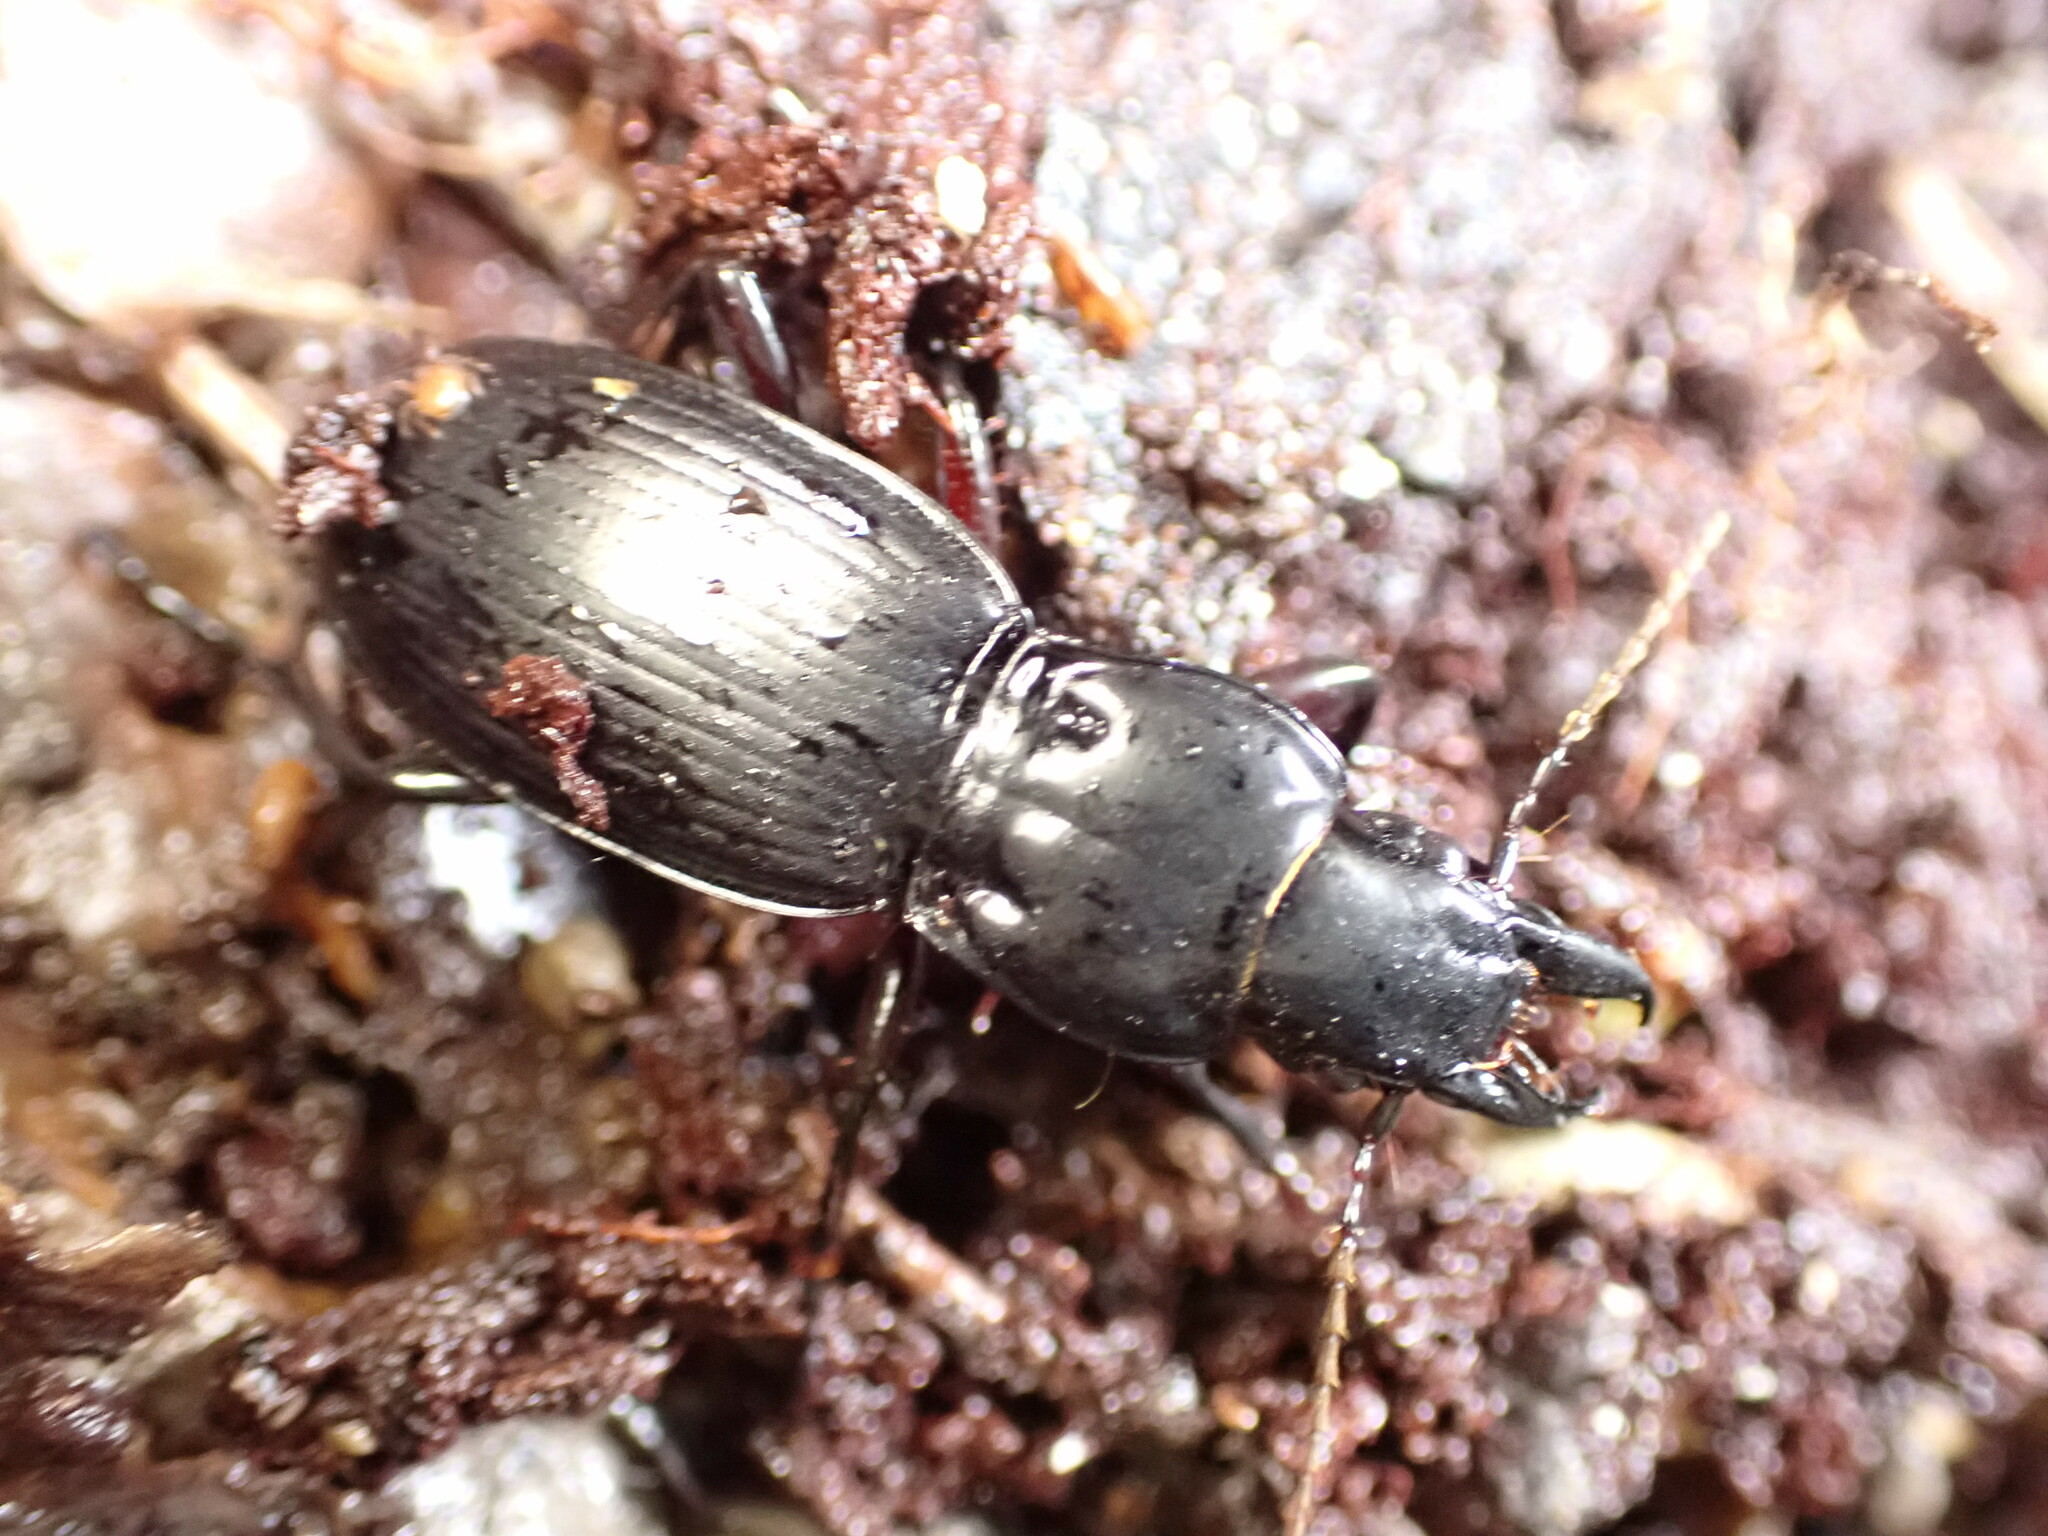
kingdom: Animalia
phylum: Arthropoda
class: Insecta
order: Coleoptera
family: Carabidae
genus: Plocamostethus
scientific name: Plocamostethus planiusculus
